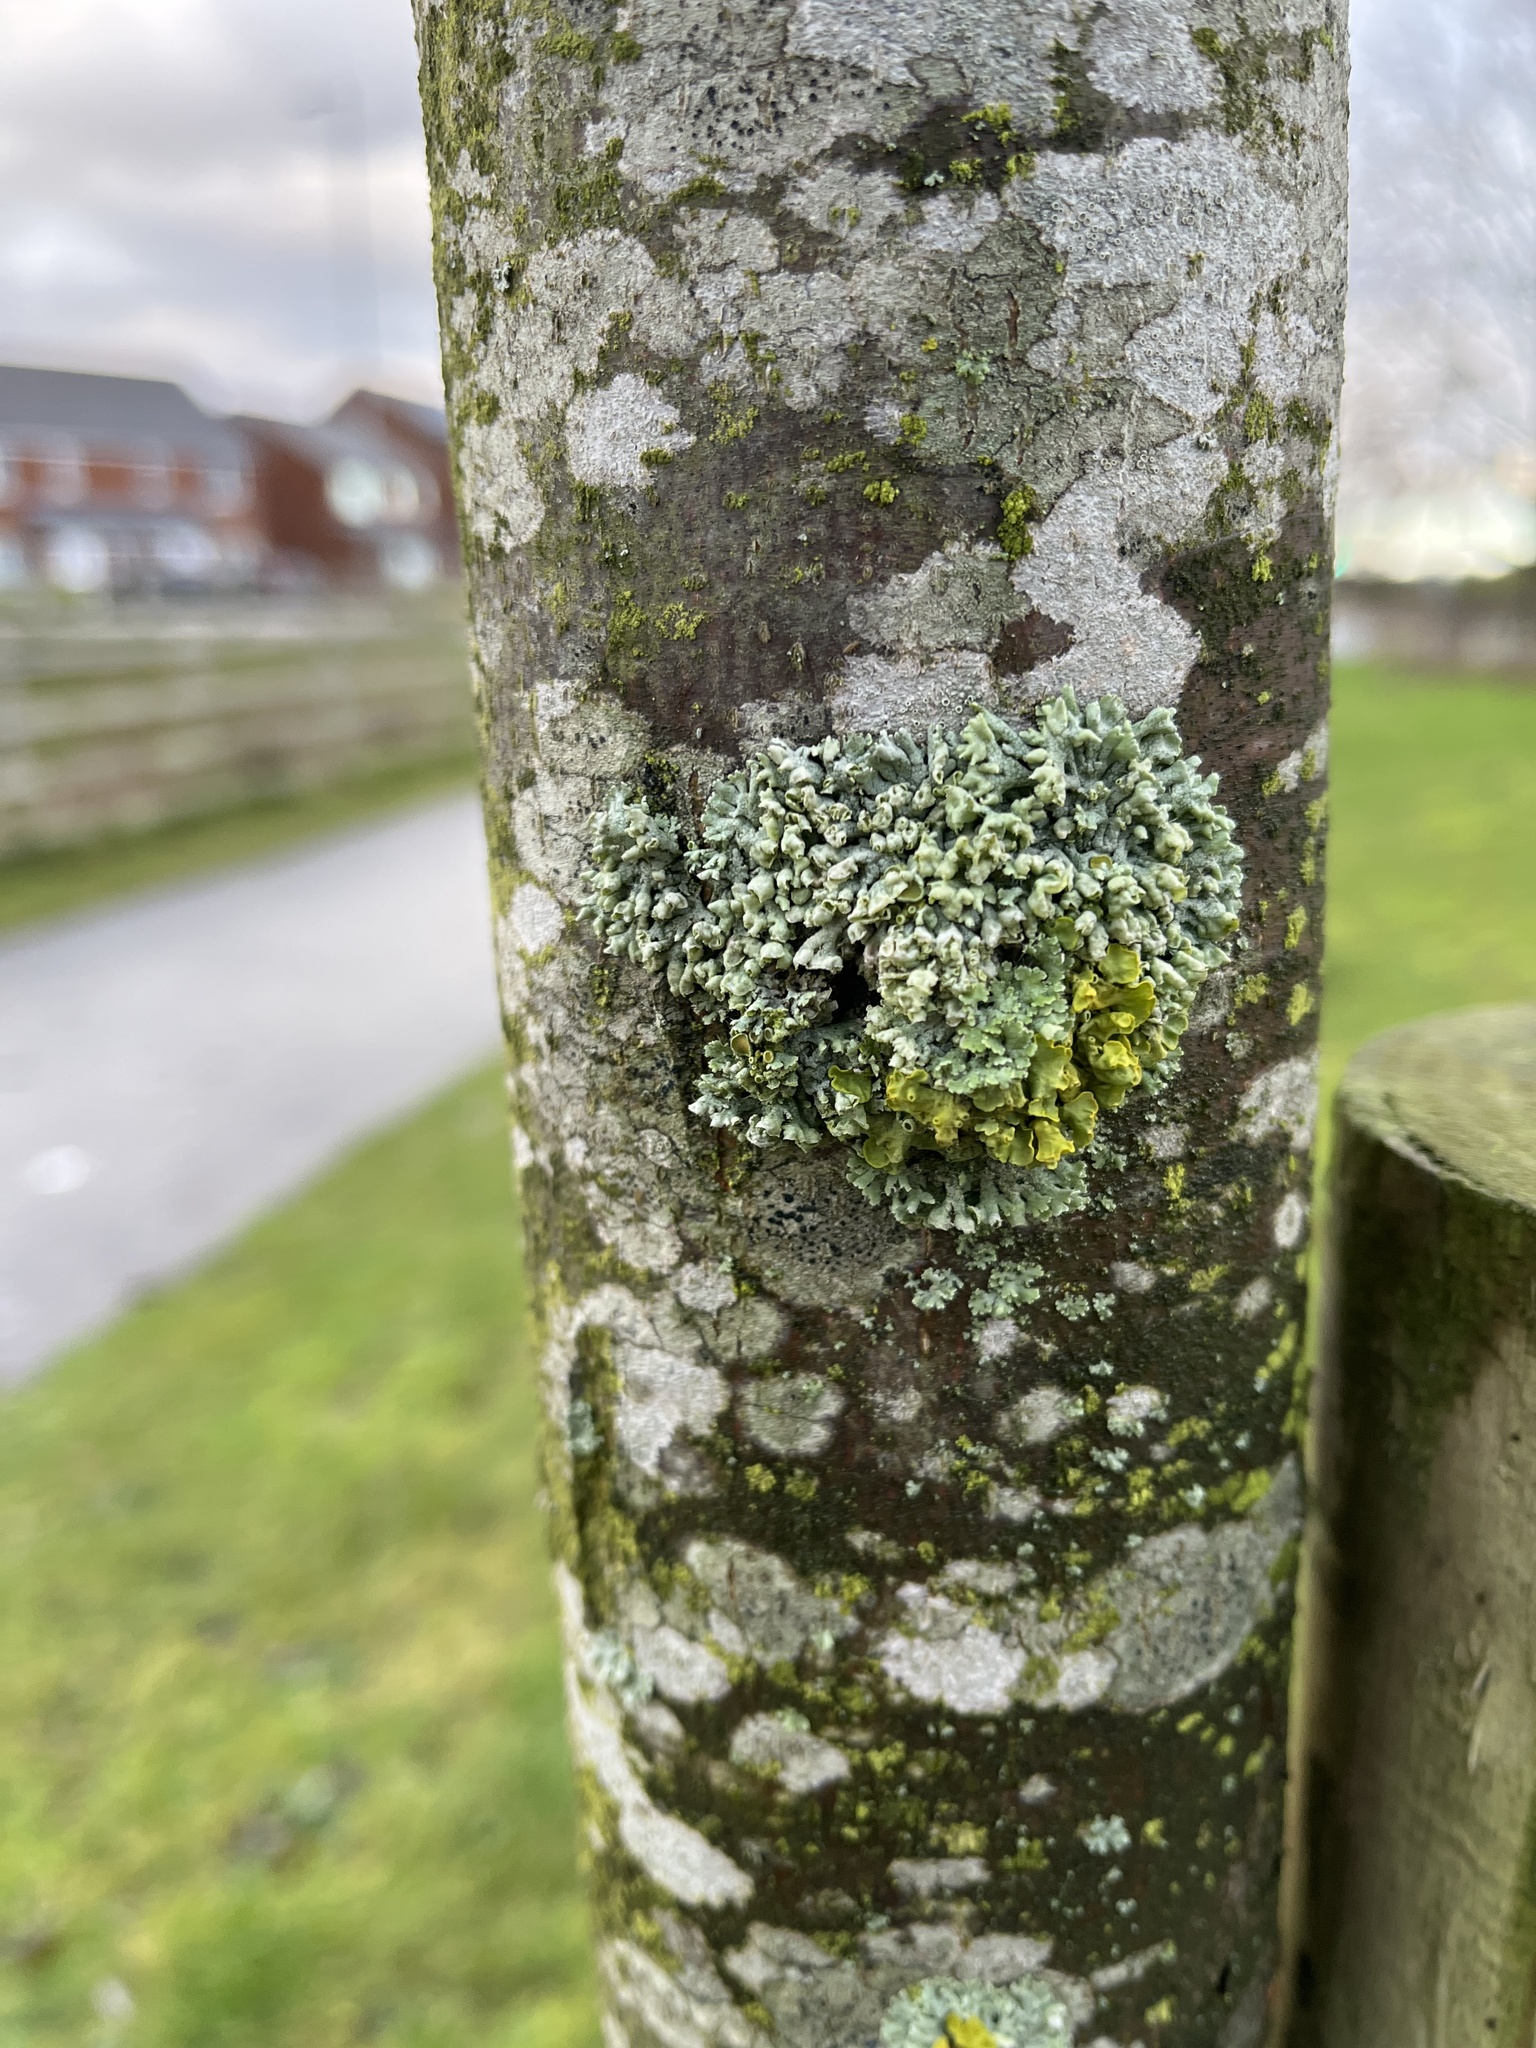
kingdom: Fungi
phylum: Ascomycota
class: Lecanoromycetes
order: Caliciales
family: Physciaceae
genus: Physcia
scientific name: Physcia adscendens
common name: Hooded rosette lichen
